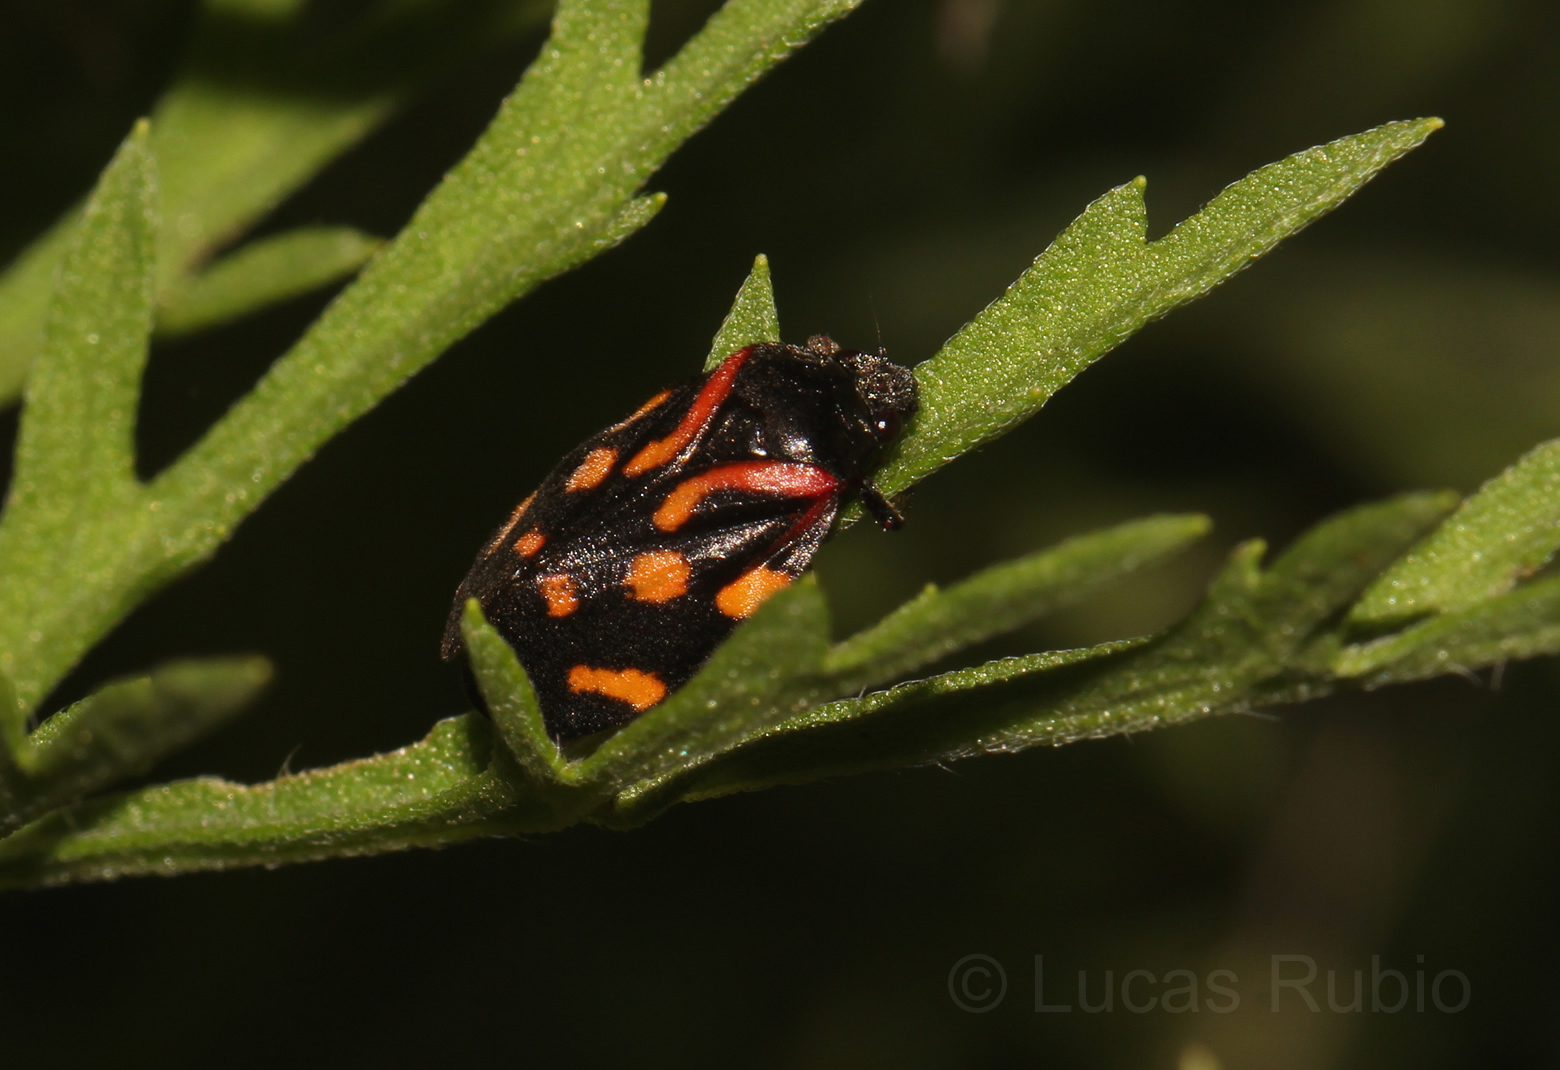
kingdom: Animalia
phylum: Arthropoda
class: Insecta
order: Hemiptera
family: Cercopidae
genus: Isozulia
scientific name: Isozulia christenseni
